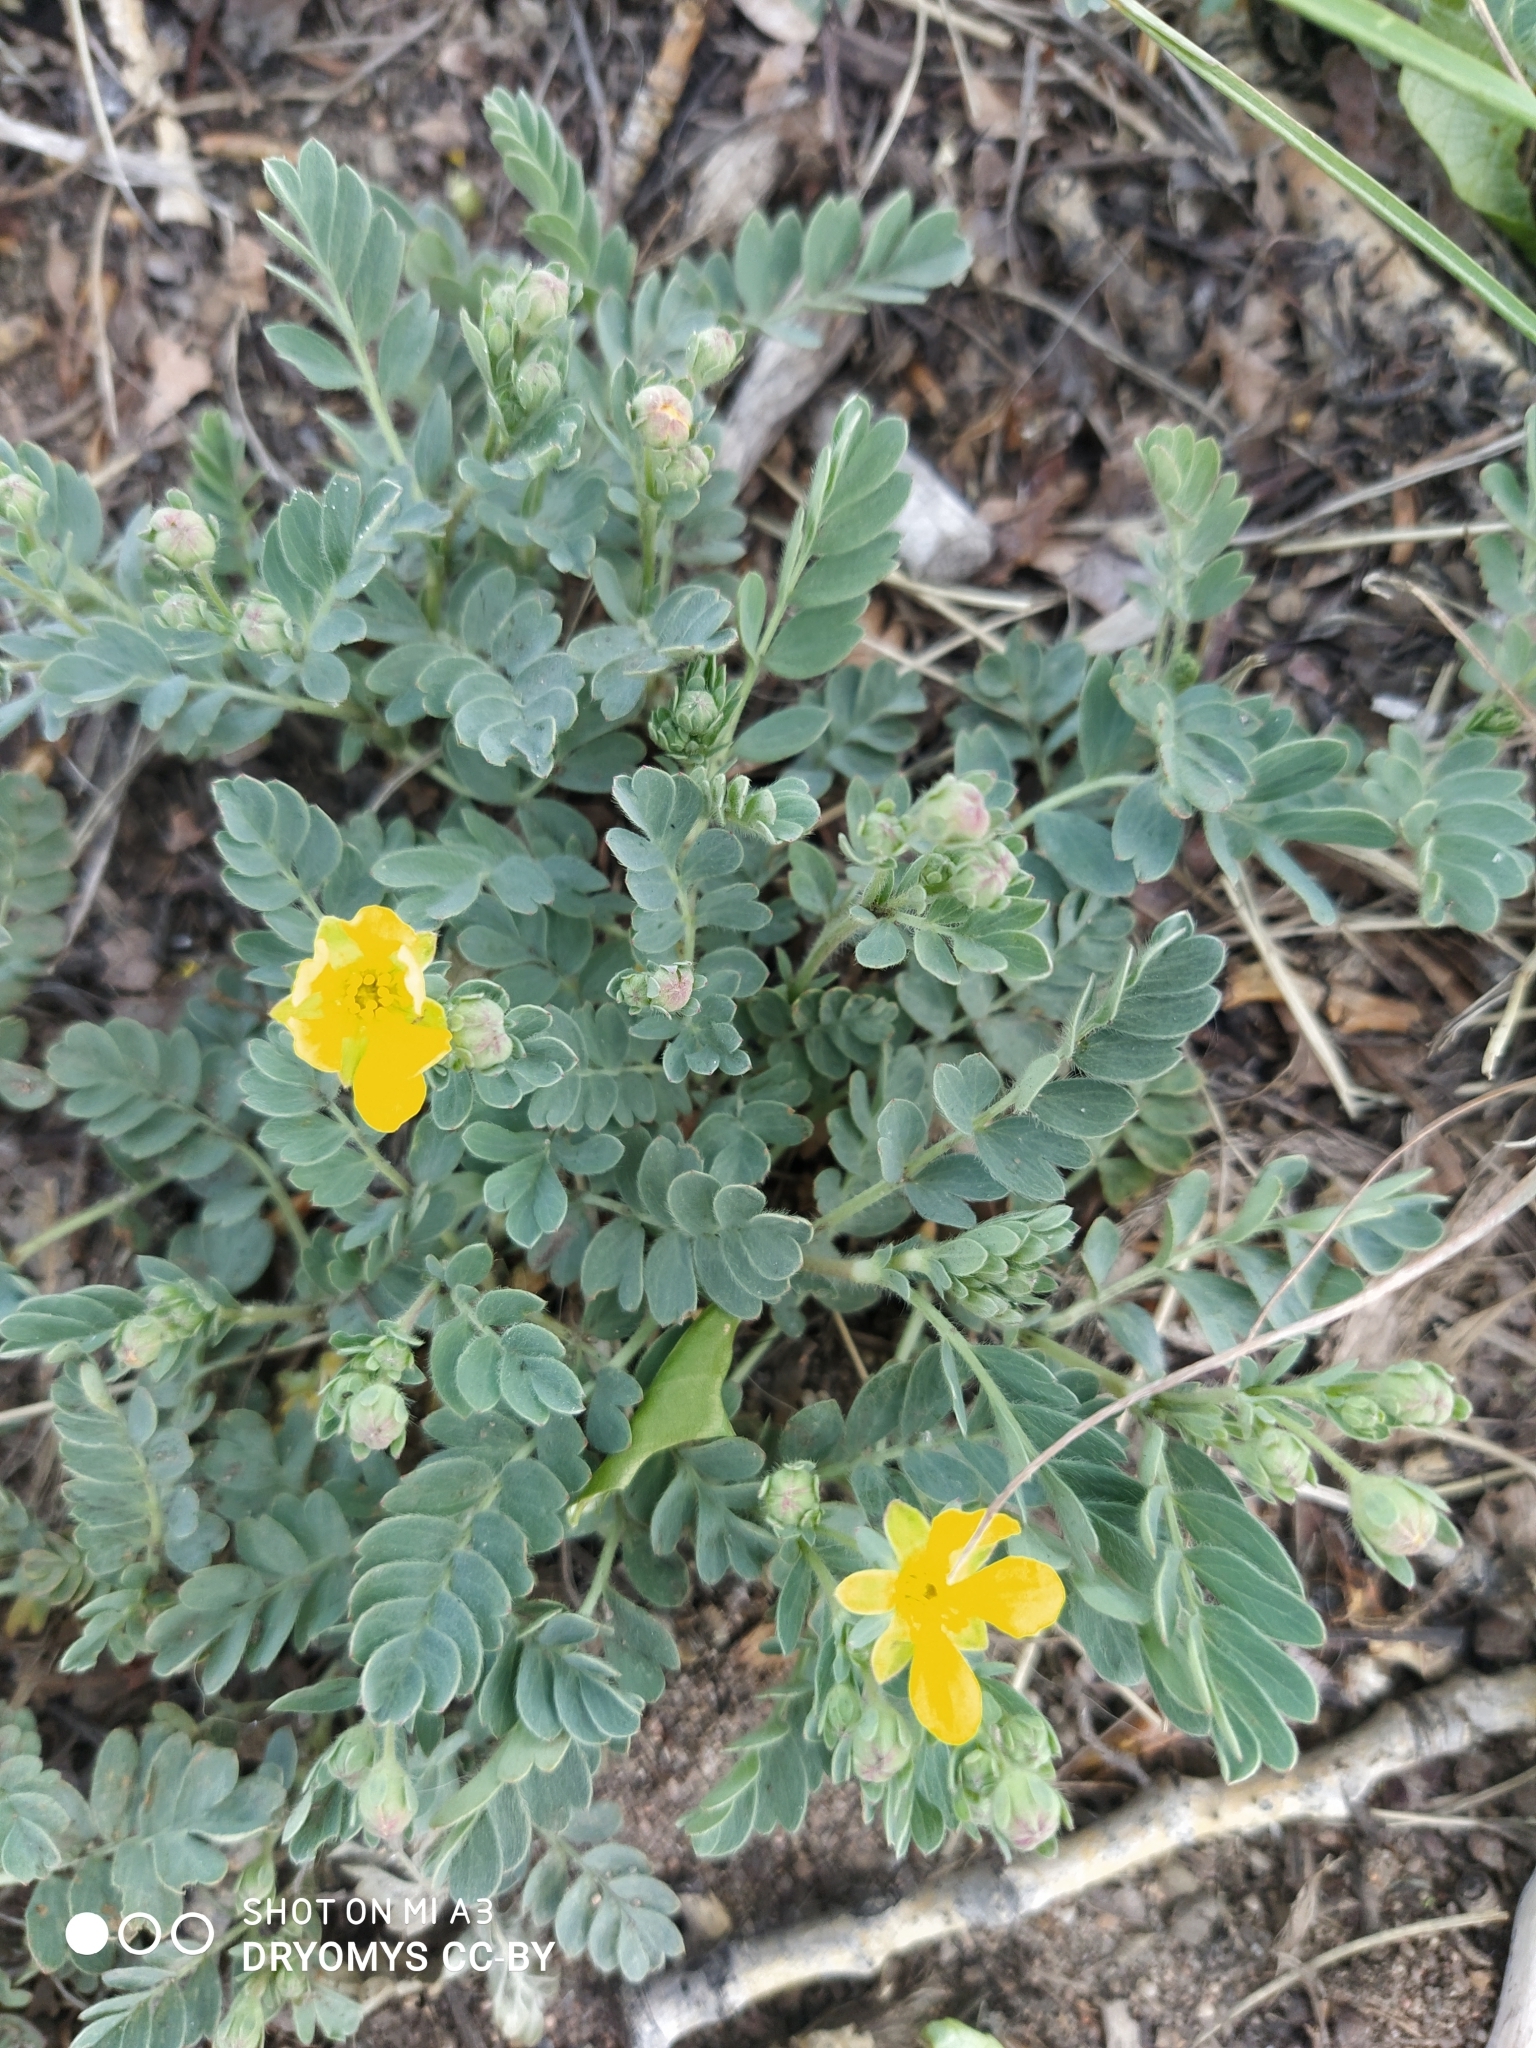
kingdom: Plantae
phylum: Tracheophyta
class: Magnoliopsida
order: Rosales
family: Rosaceae
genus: Sibbaldianthe
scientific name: Sibbaldianthe bifurca
